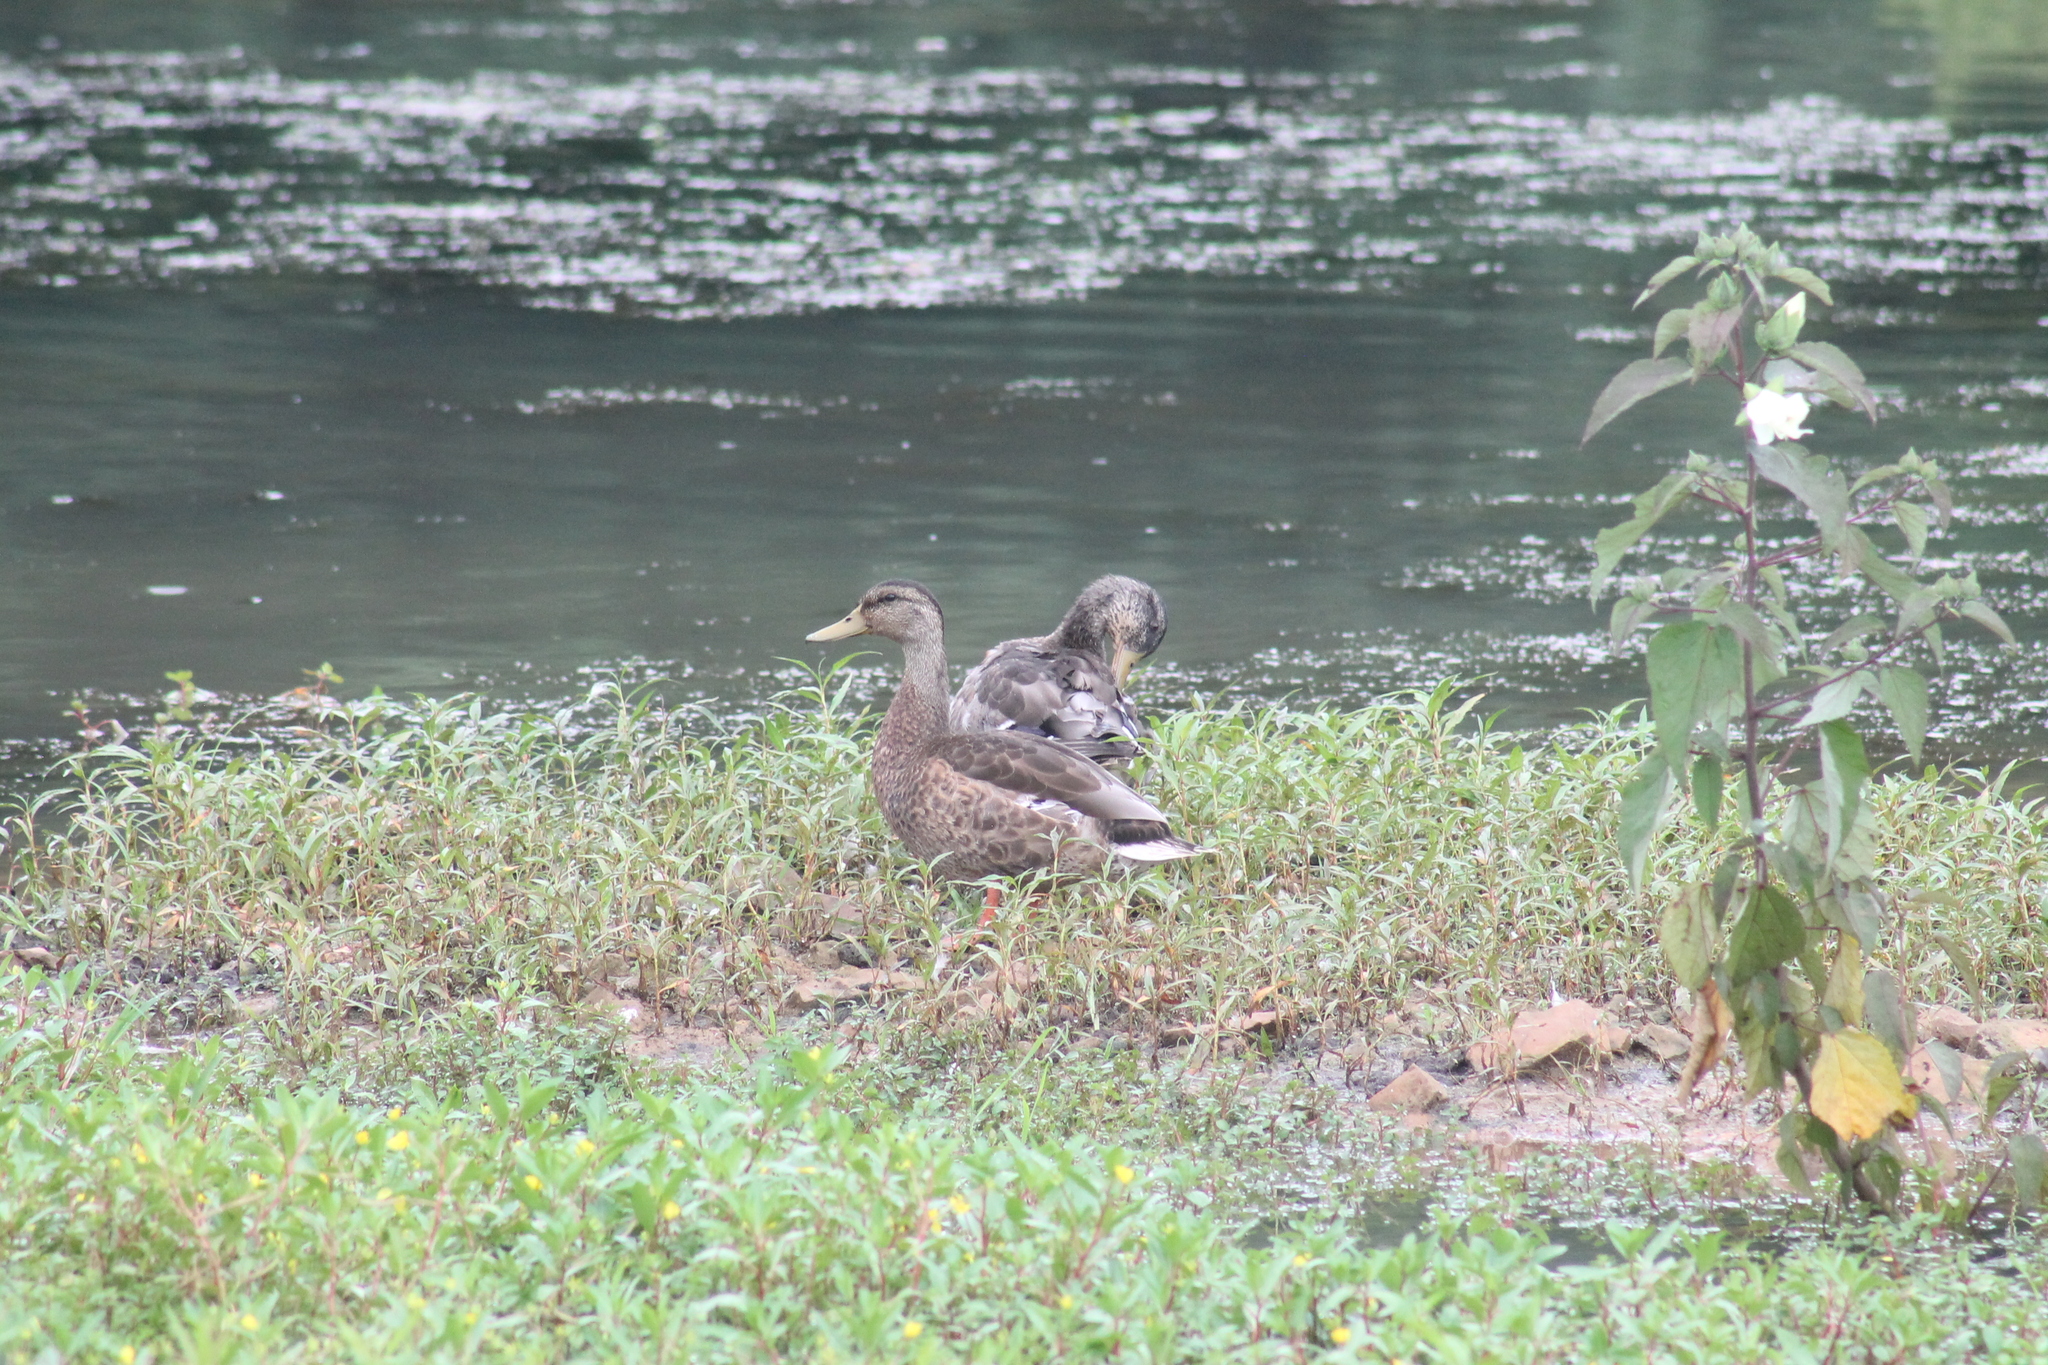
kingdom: Animalia
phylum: Chordata
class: Aves
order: Anseriformes
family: Anatidae
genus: Anas
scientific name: Anas platyrhynchos
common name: Mallard
